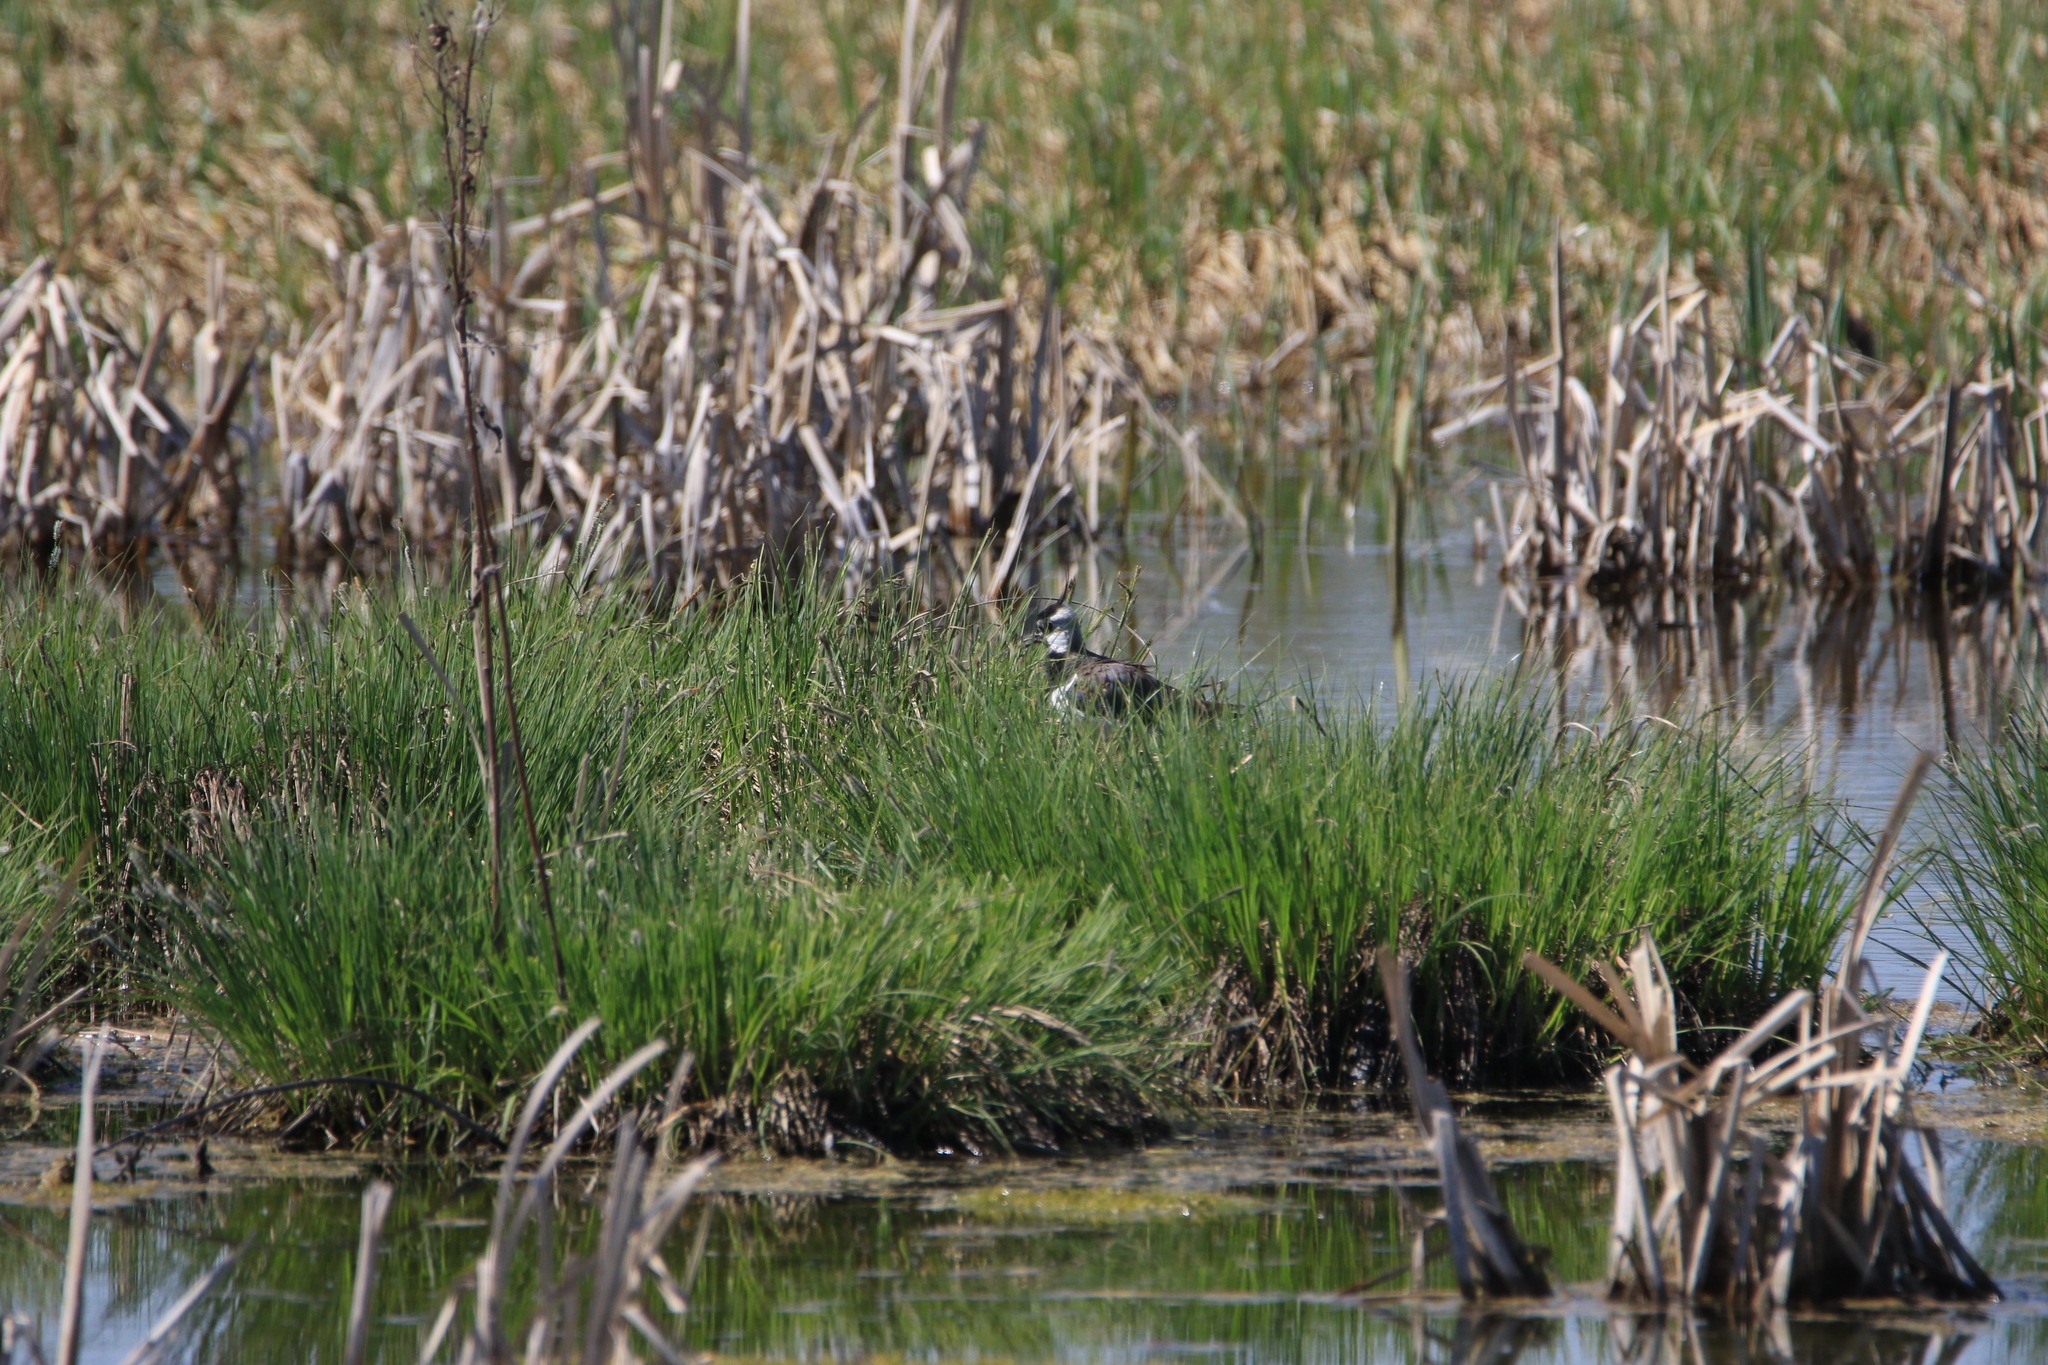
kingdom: Animalia
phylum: Chordata
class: Aves
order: Charadriiformes
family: Charadriidae
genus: Vanellus
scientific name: Vanellus vanellus
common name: Northern lapwing
